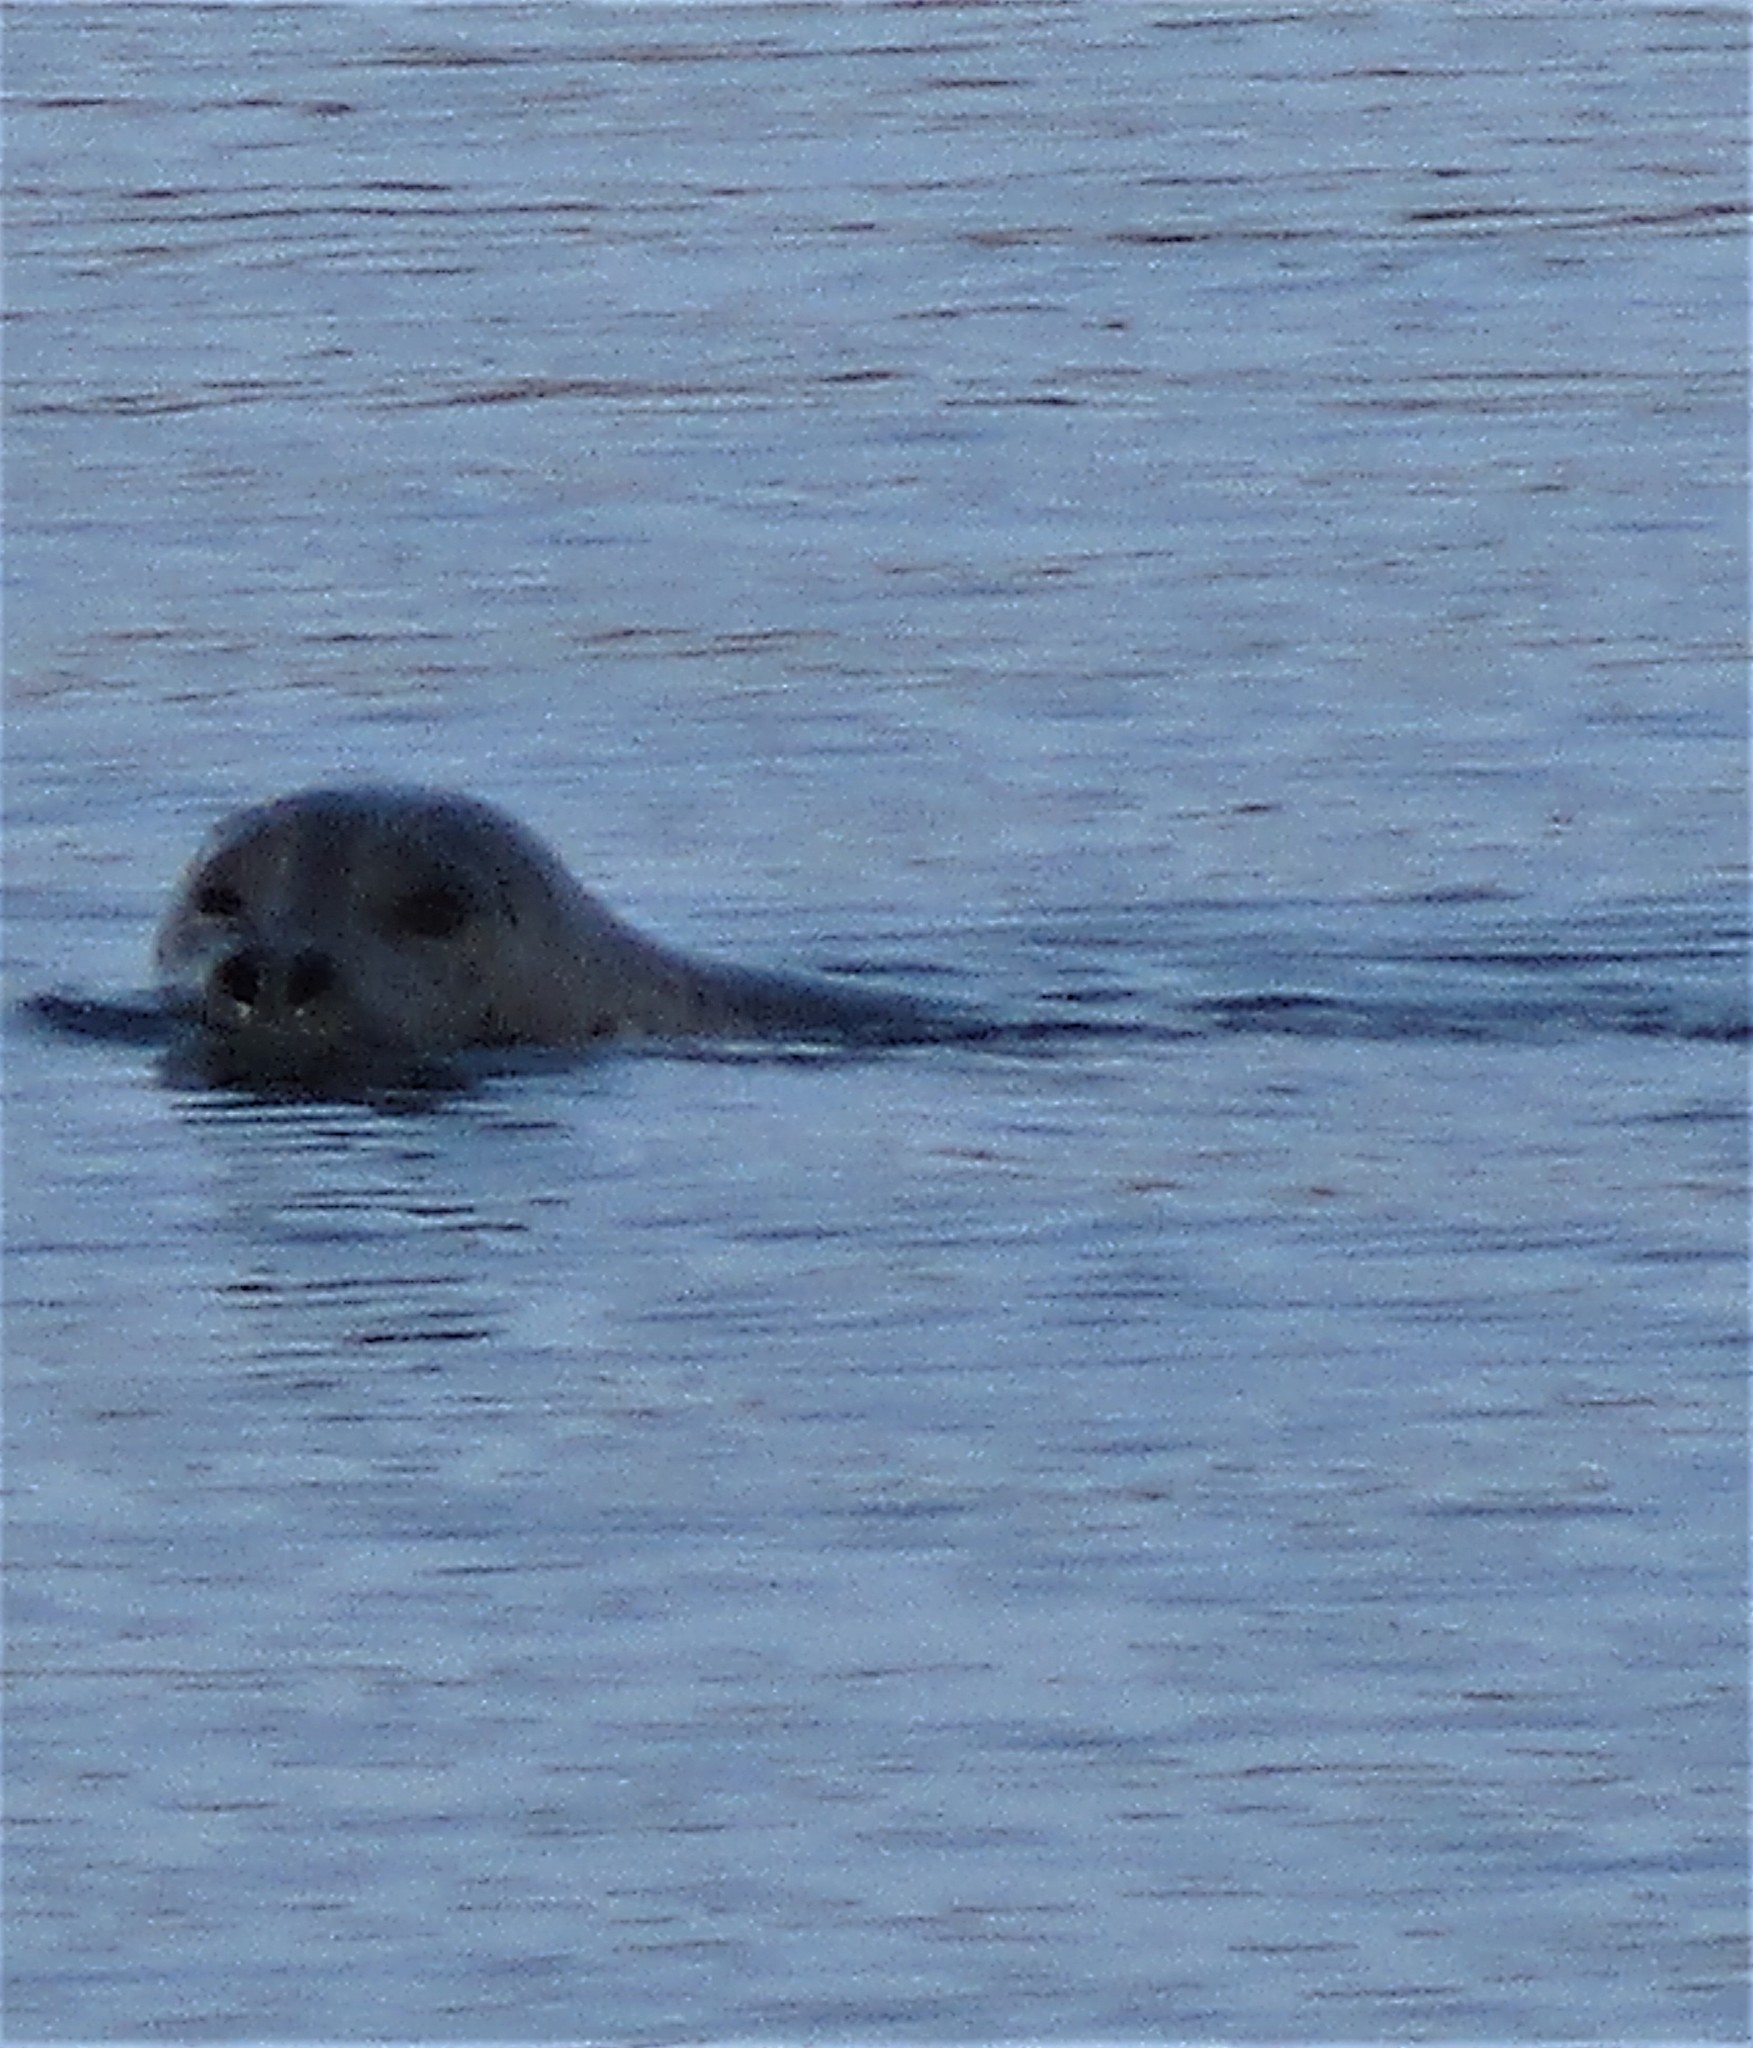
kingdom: Animalia
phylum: Chordata
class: Mammalia
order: Carnivora
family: Phocidae
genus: Phoca
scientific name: Phoca vitulina
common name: Harbor seal
